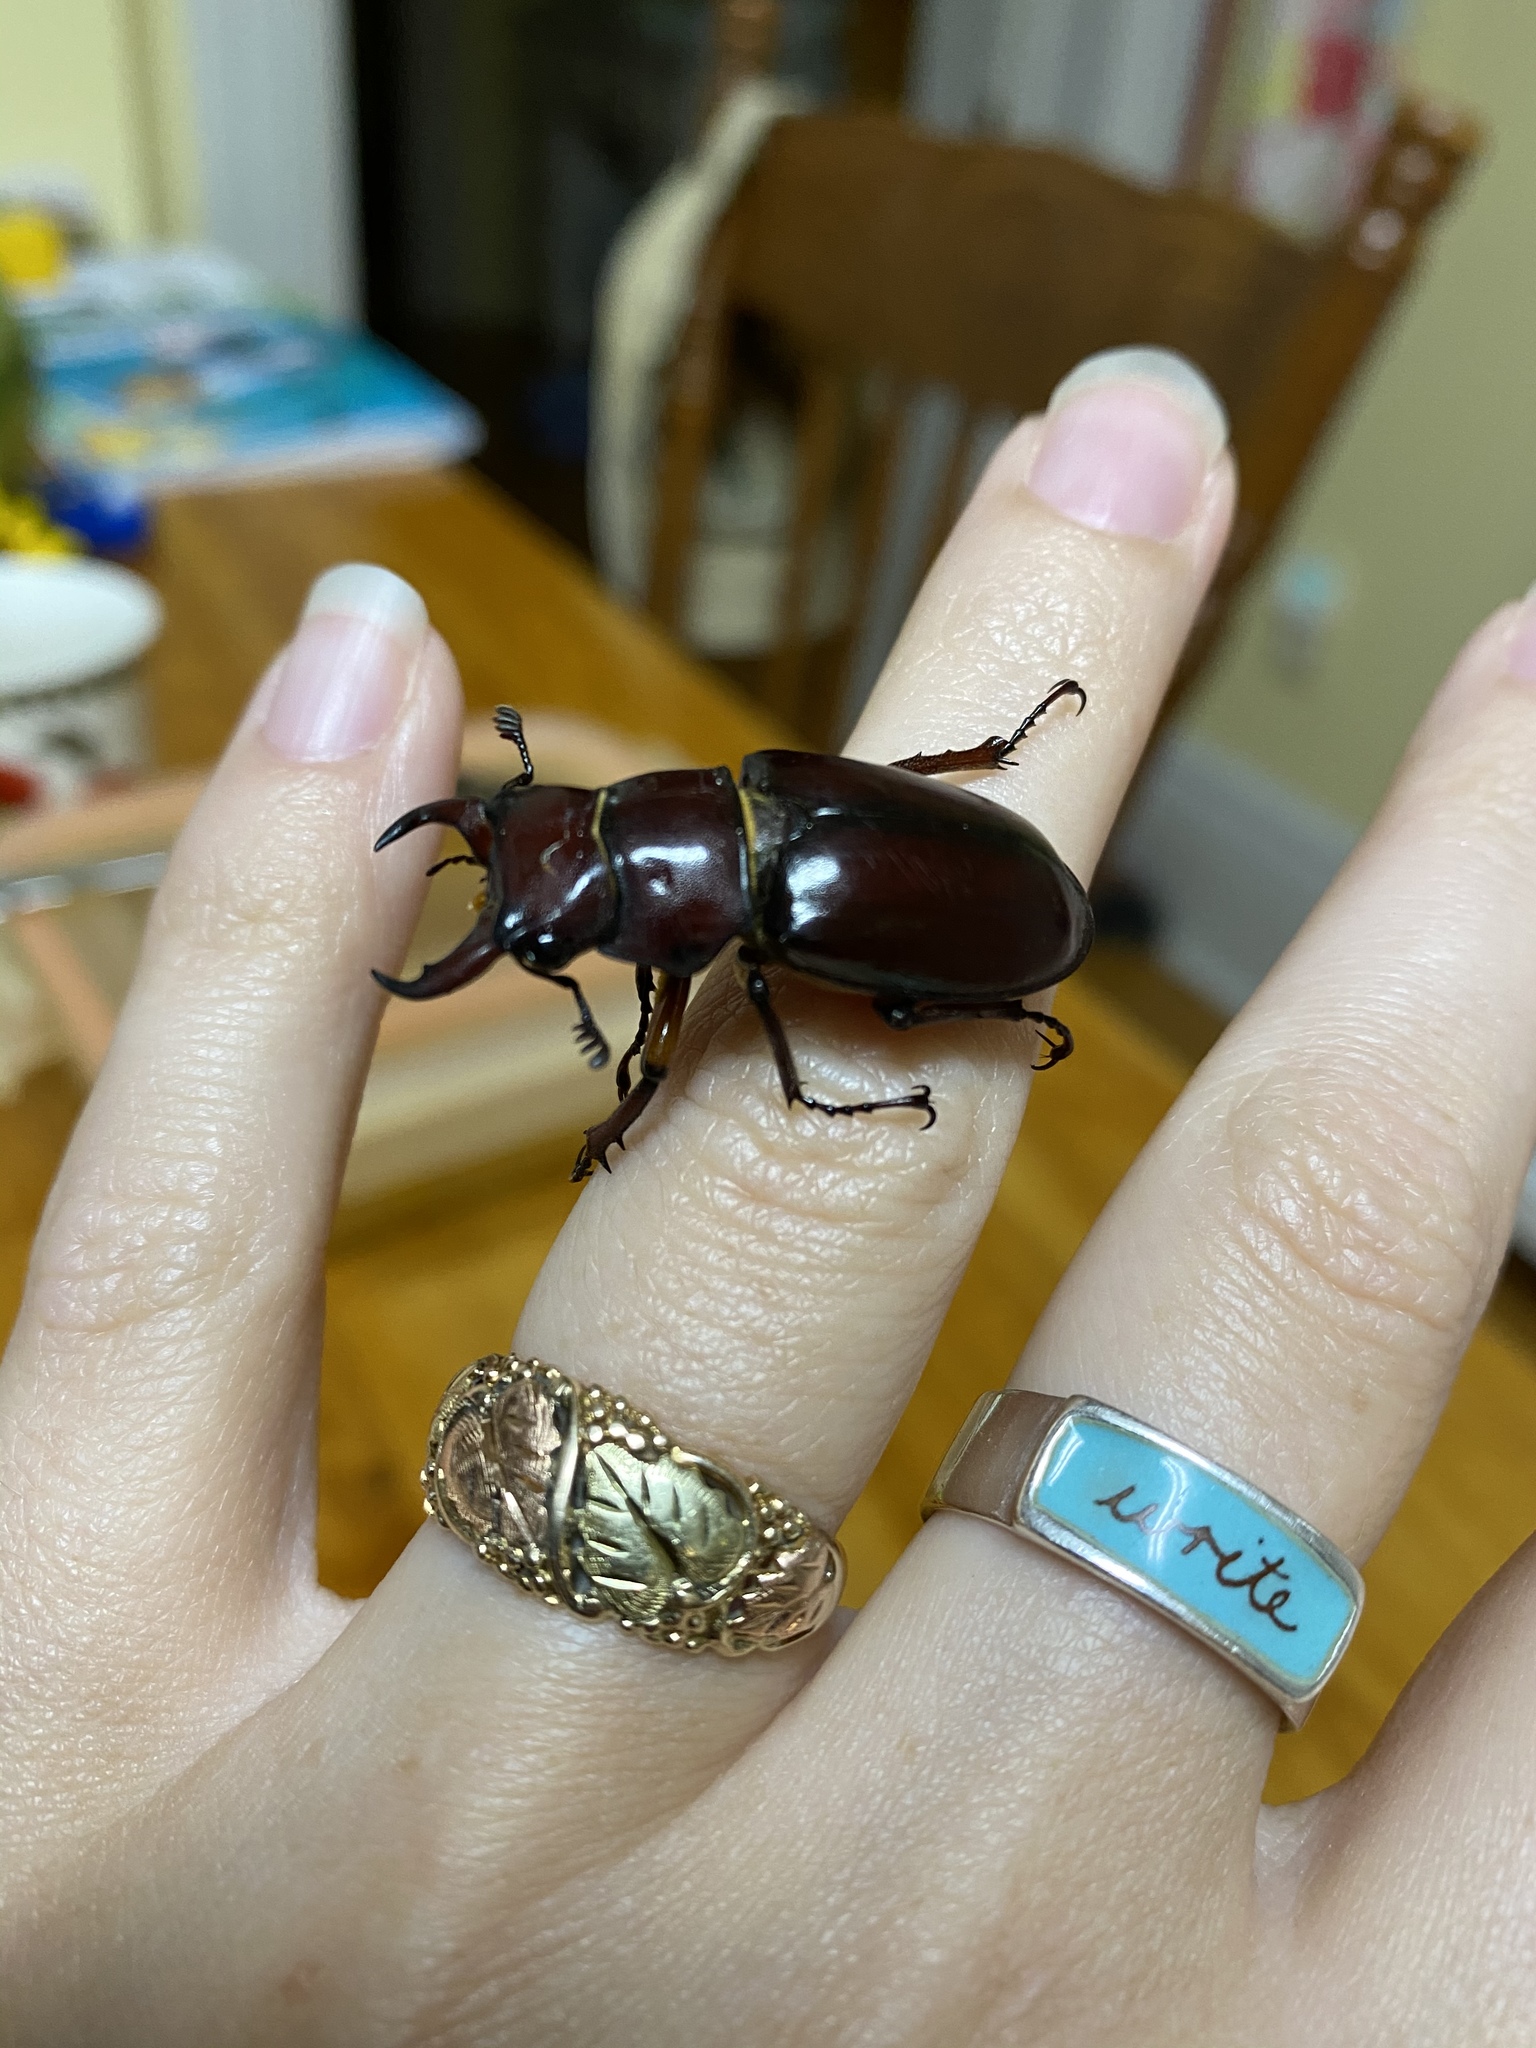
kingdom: Animalia
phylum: Arthropoda
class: Insecta
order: Coleoptera
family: Lucanidae
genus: Lucanus
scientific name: Lucanus capreolus
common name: Stag beetle
